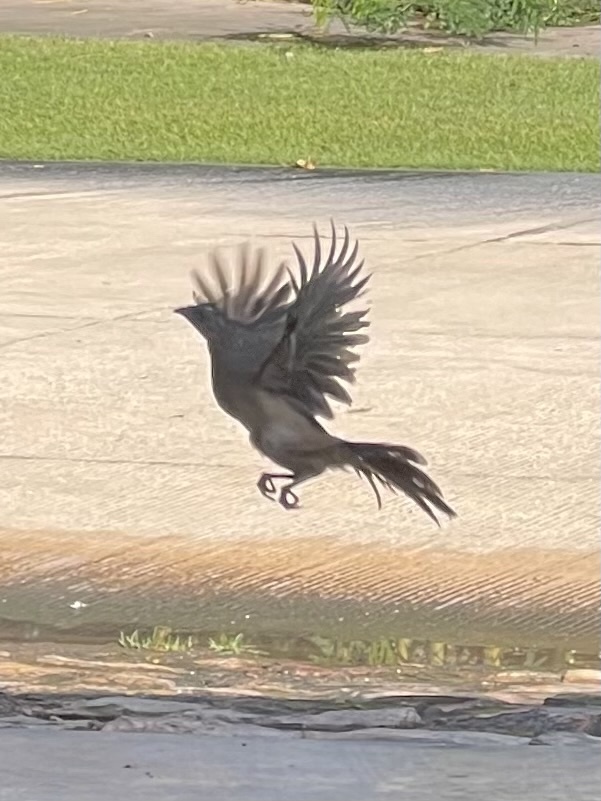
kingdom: Animalia
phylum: Chordata
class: Aves
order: Galliformes
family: Cracidae
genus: Ortalis
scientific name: Ortalis vetula
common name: Plain chachalaca
